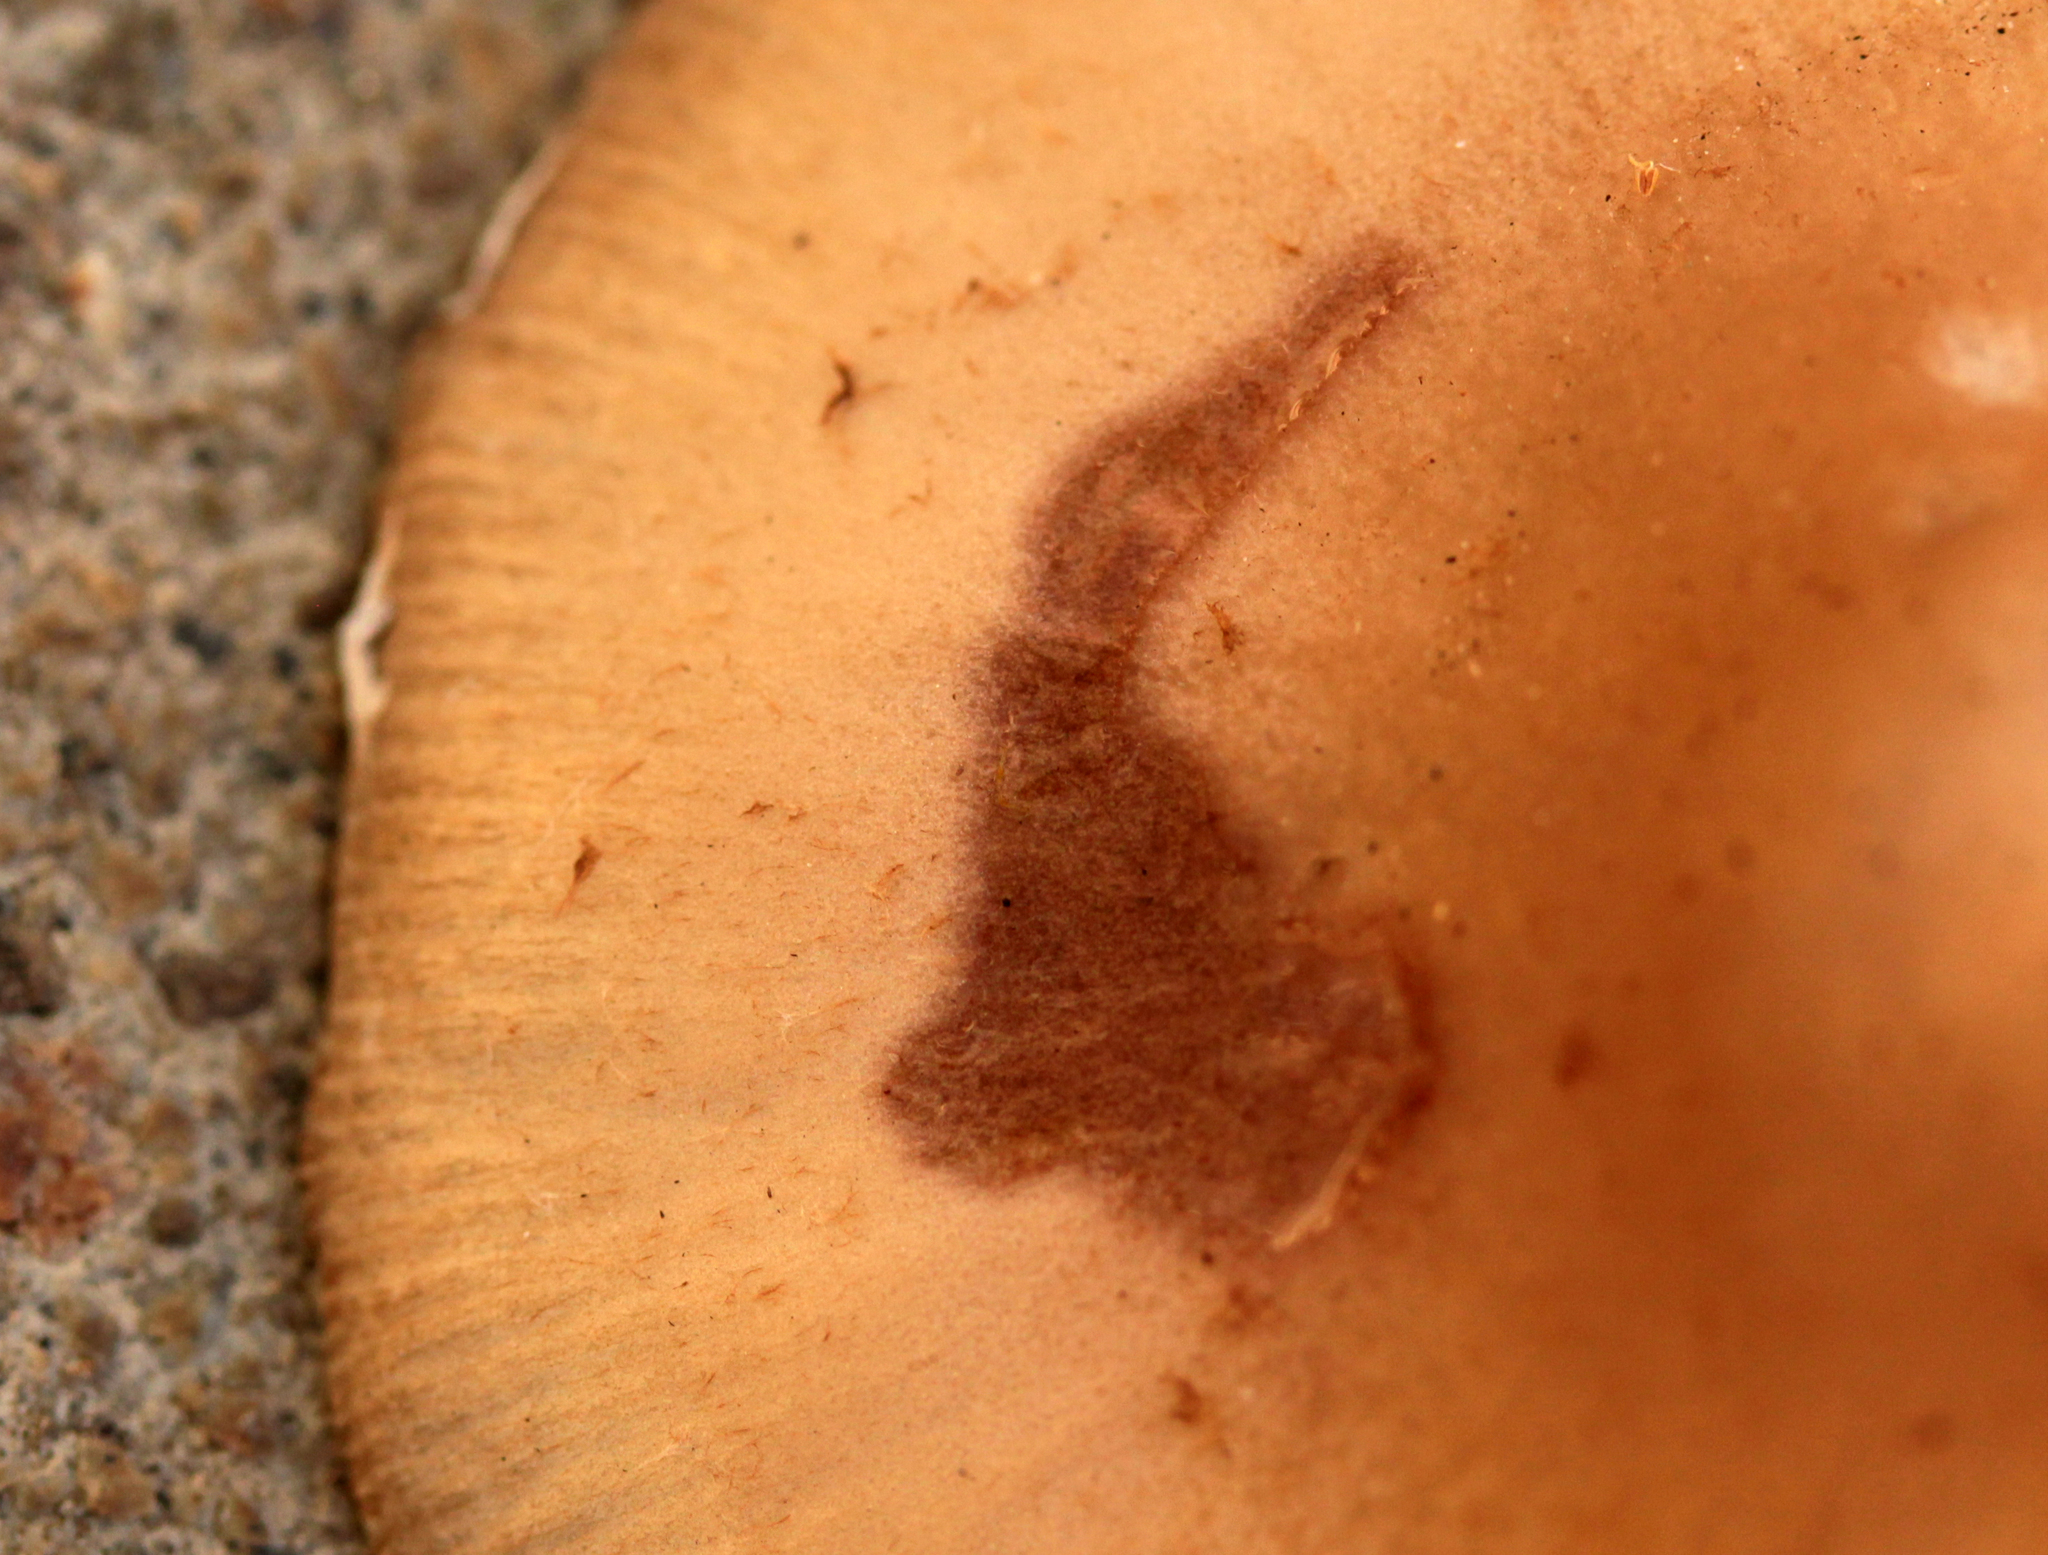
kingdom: Fungi
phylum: Basidiomycota
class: Agaricomycetes
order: Agaricales
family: Psathyrellaceae
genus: Candolleomyces
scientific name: Candolleomyces candolleanus
